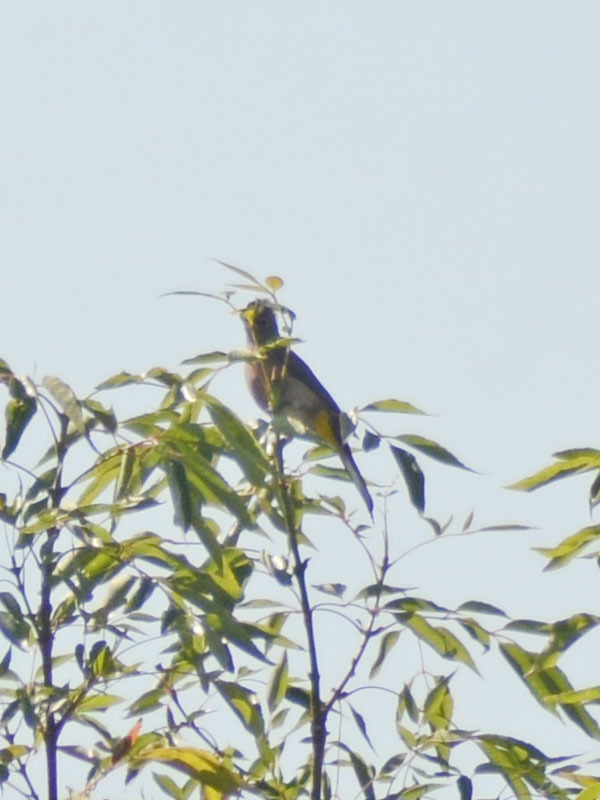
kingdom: Animalia
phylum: Chordata
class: Aves
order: Passeriformes
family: Ptilogonatidae
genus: Ptilogonys
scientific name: Ptilogonys cinereus
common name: Gray silky-flycatcher
